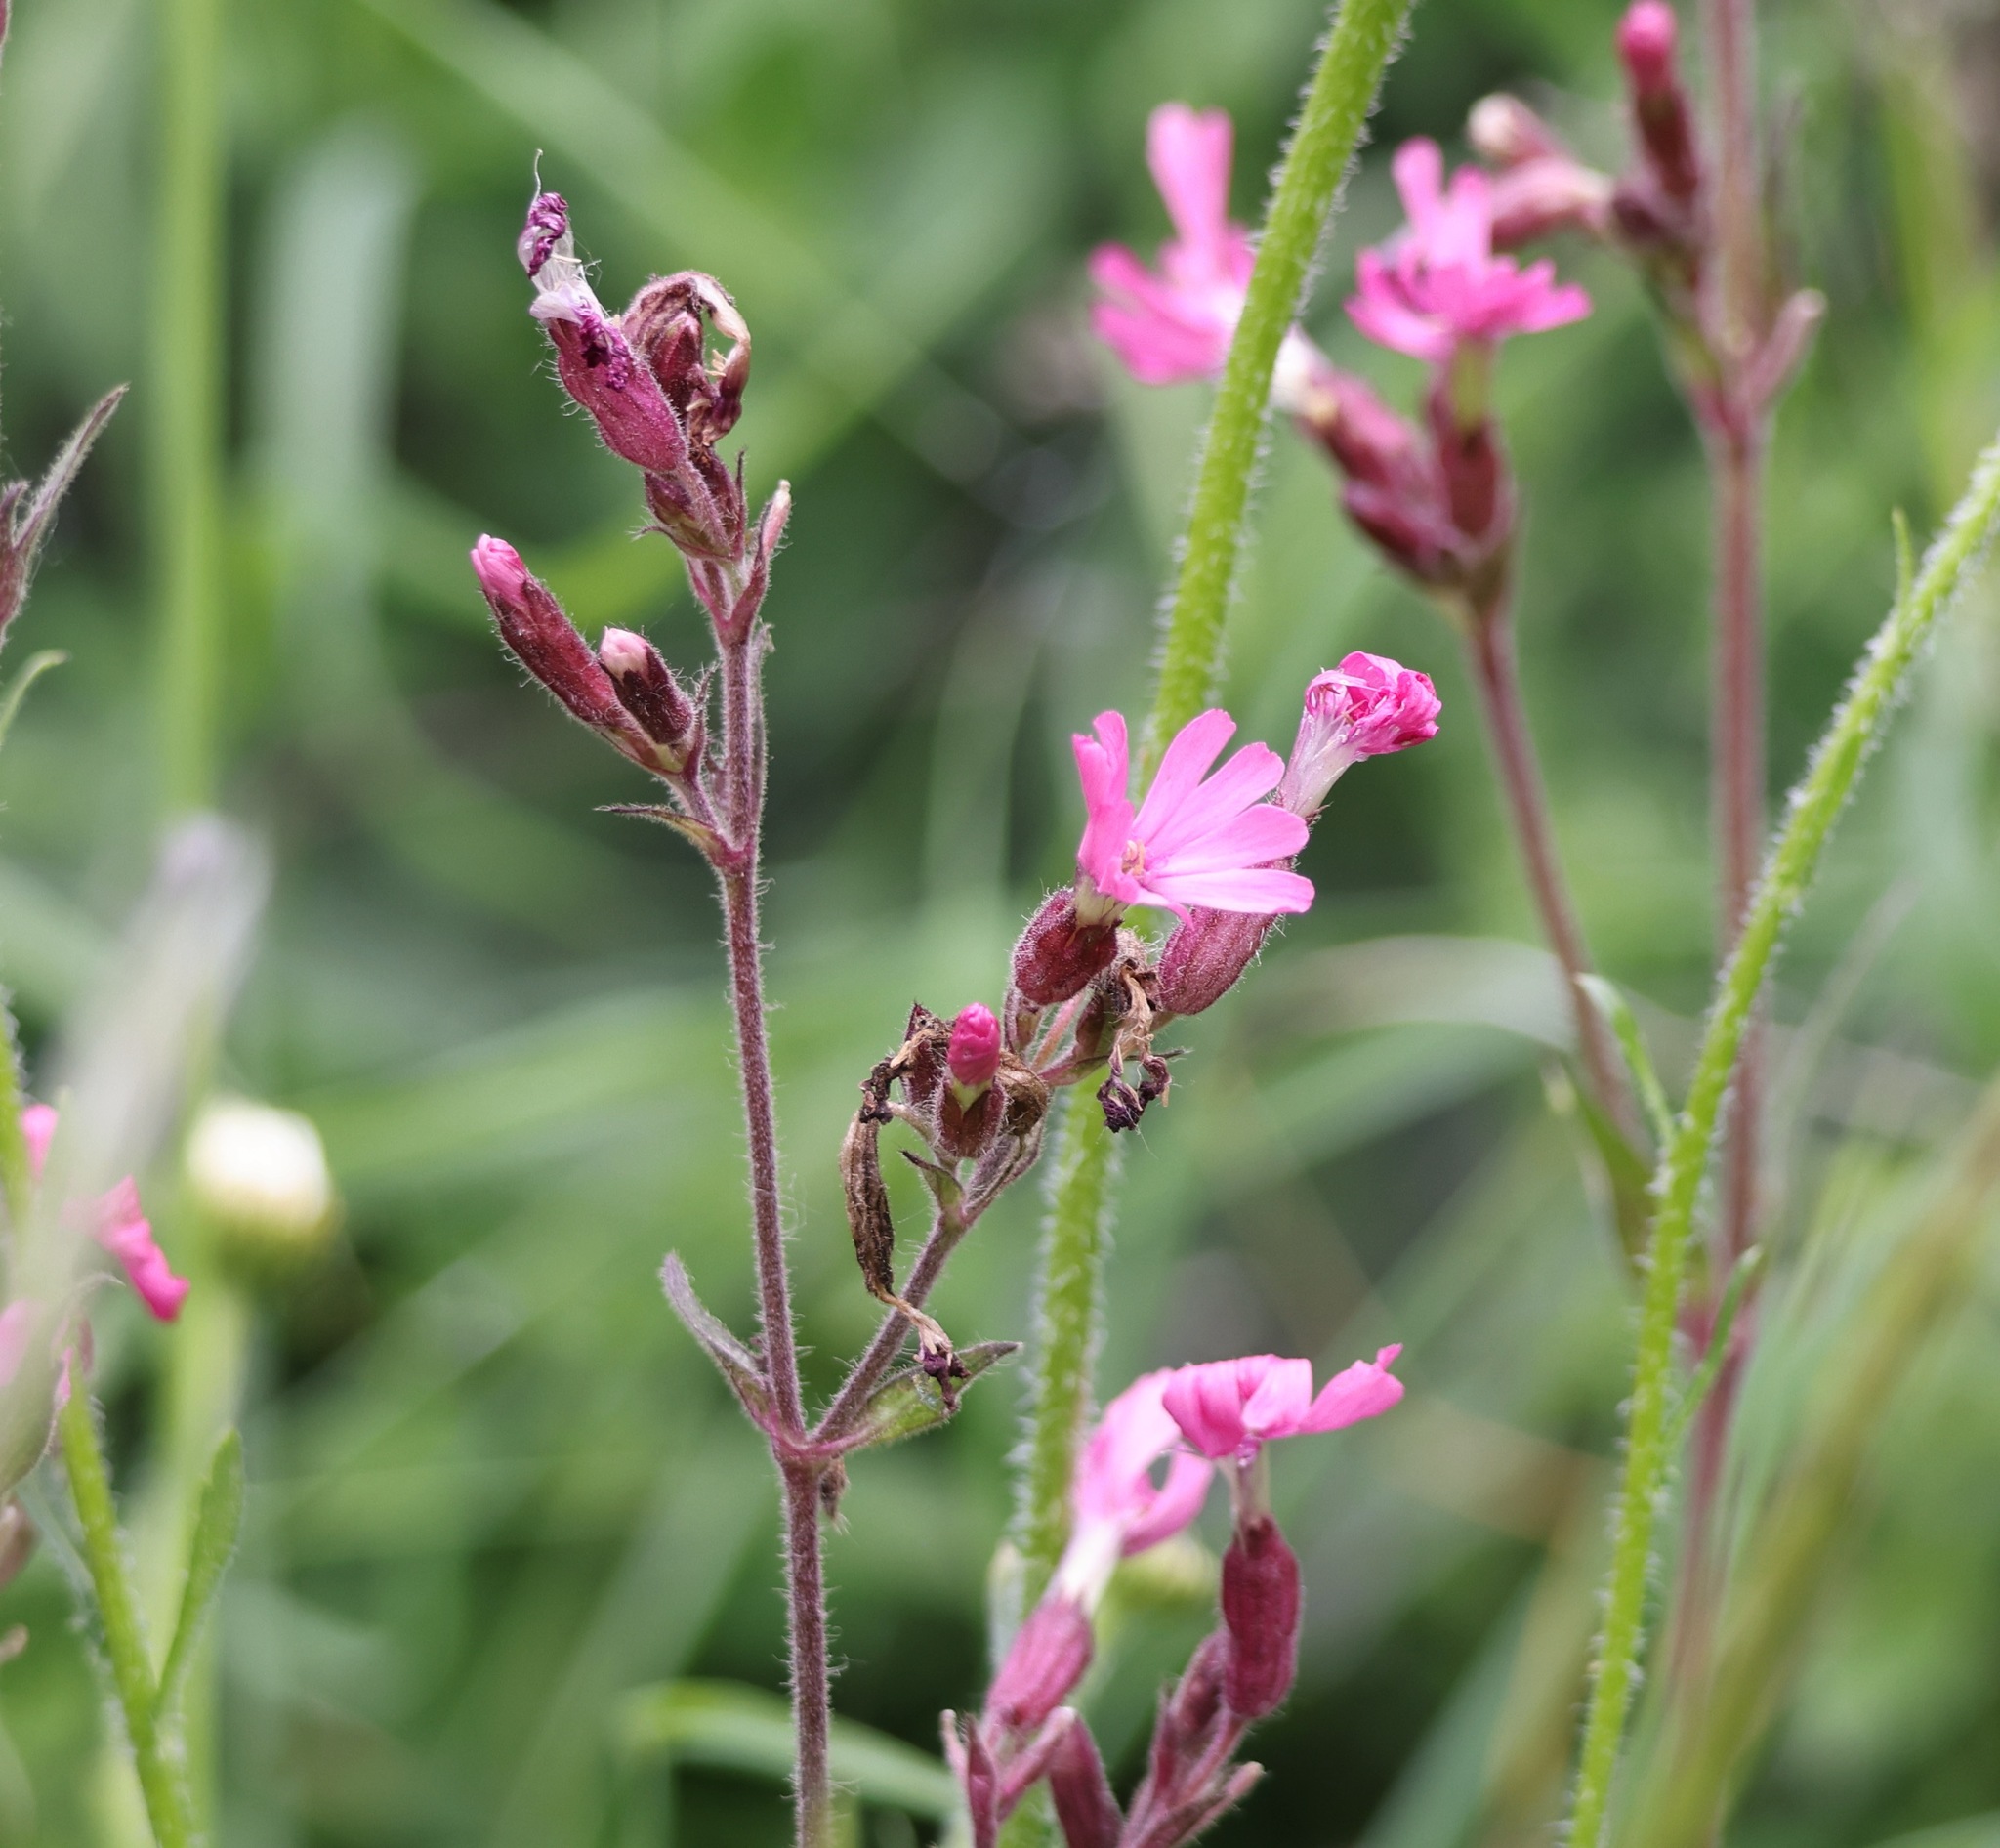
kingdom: Plantae
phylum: Tracheophyta
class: Magnoliopsida
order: Caryophyllales
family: Caryophyllaceae
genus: Silene
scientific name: Silene dioica
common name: Red campion
